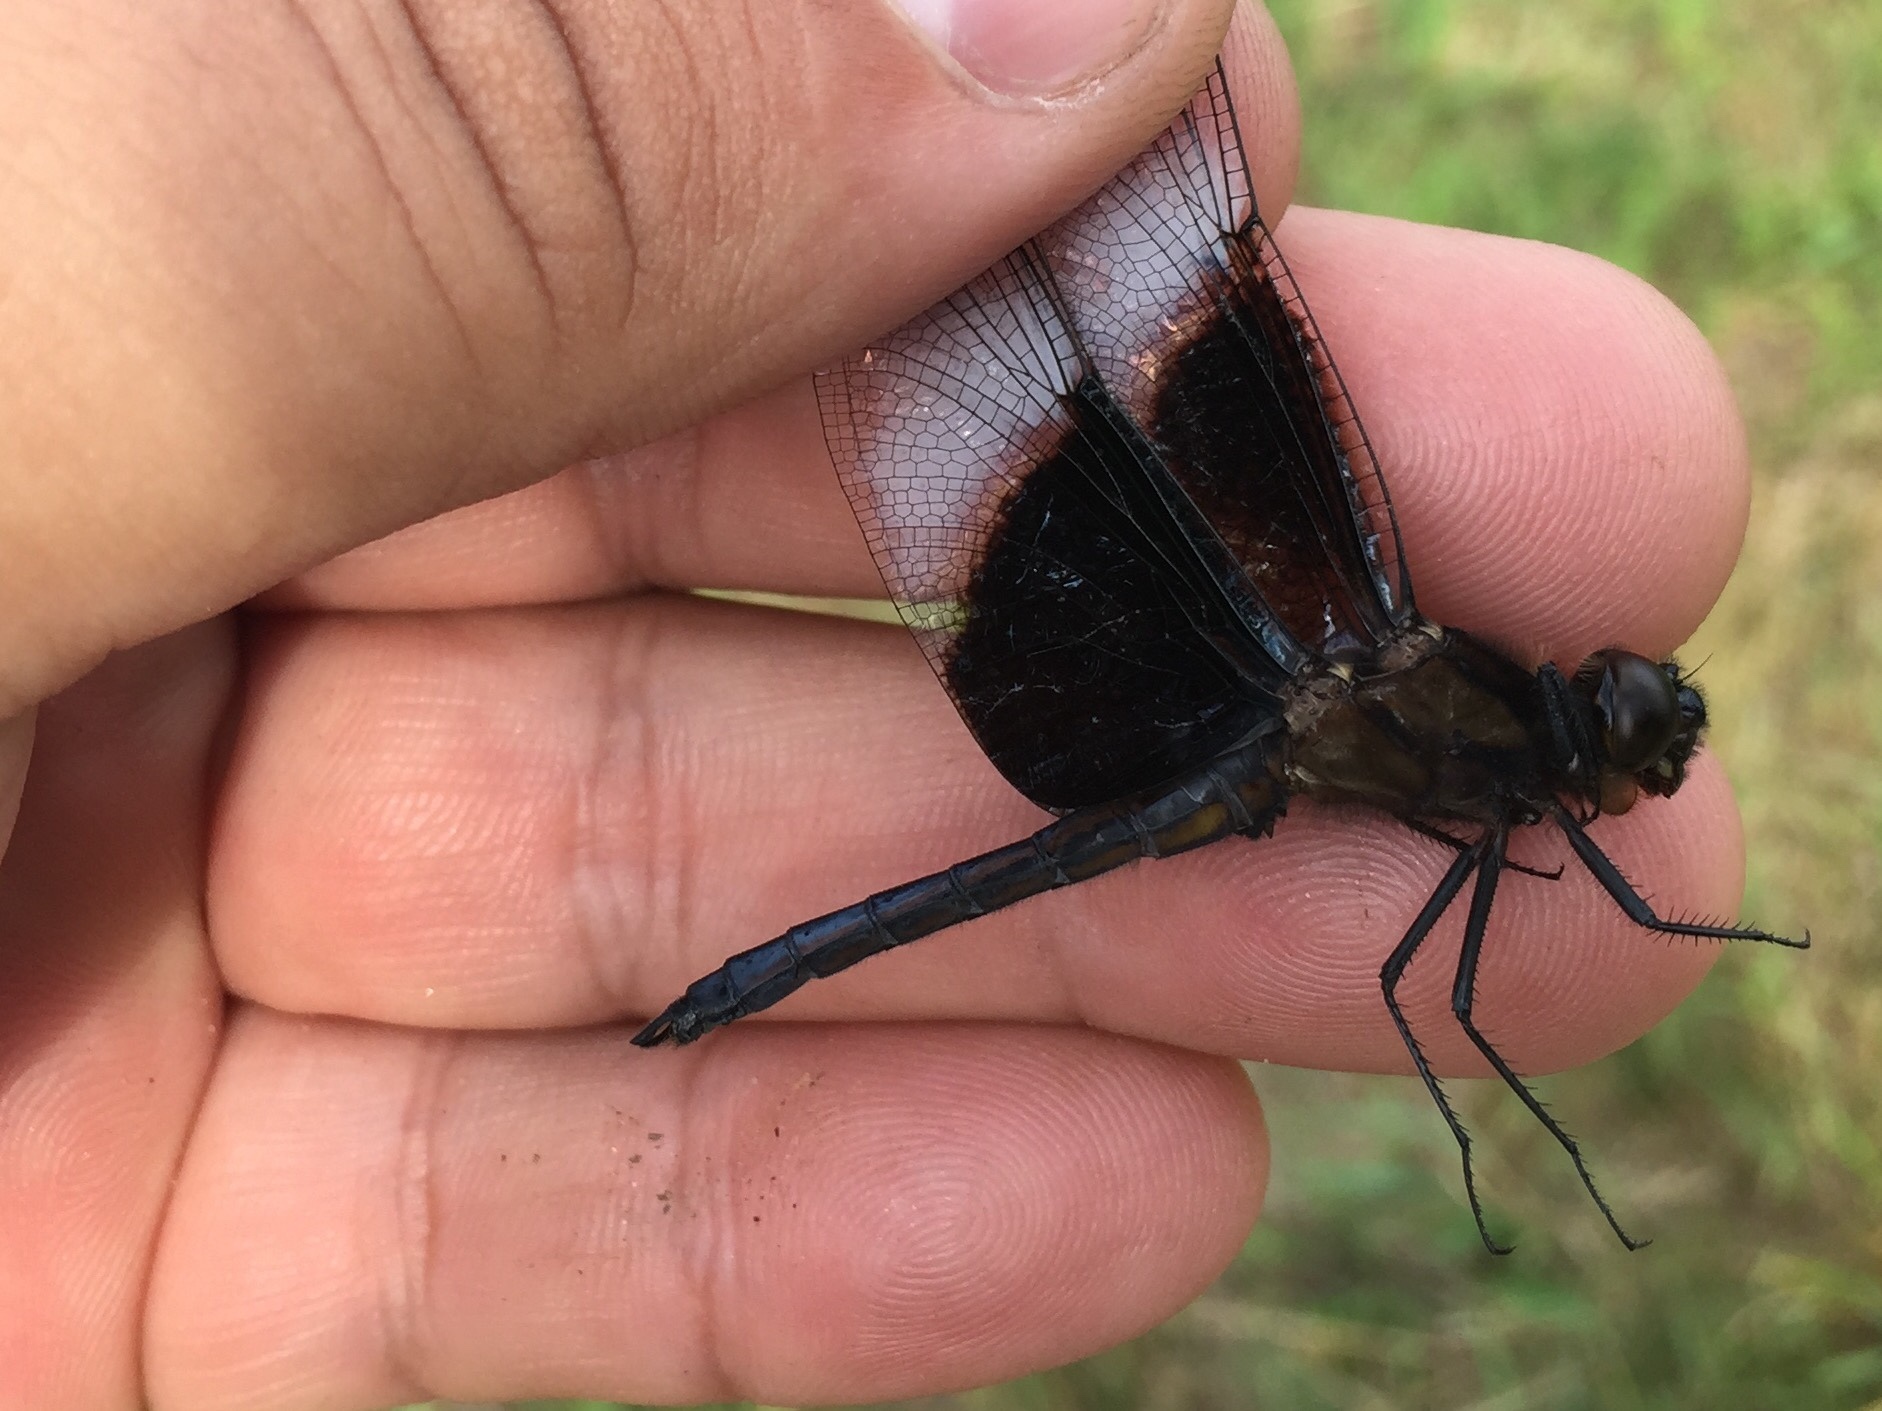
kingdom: Animalia
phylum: Arthropoda
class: Insecta
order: Odonata
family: Libellulidae
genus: Libellula
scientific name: Libellula luctuosa
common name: Widow skimmer
